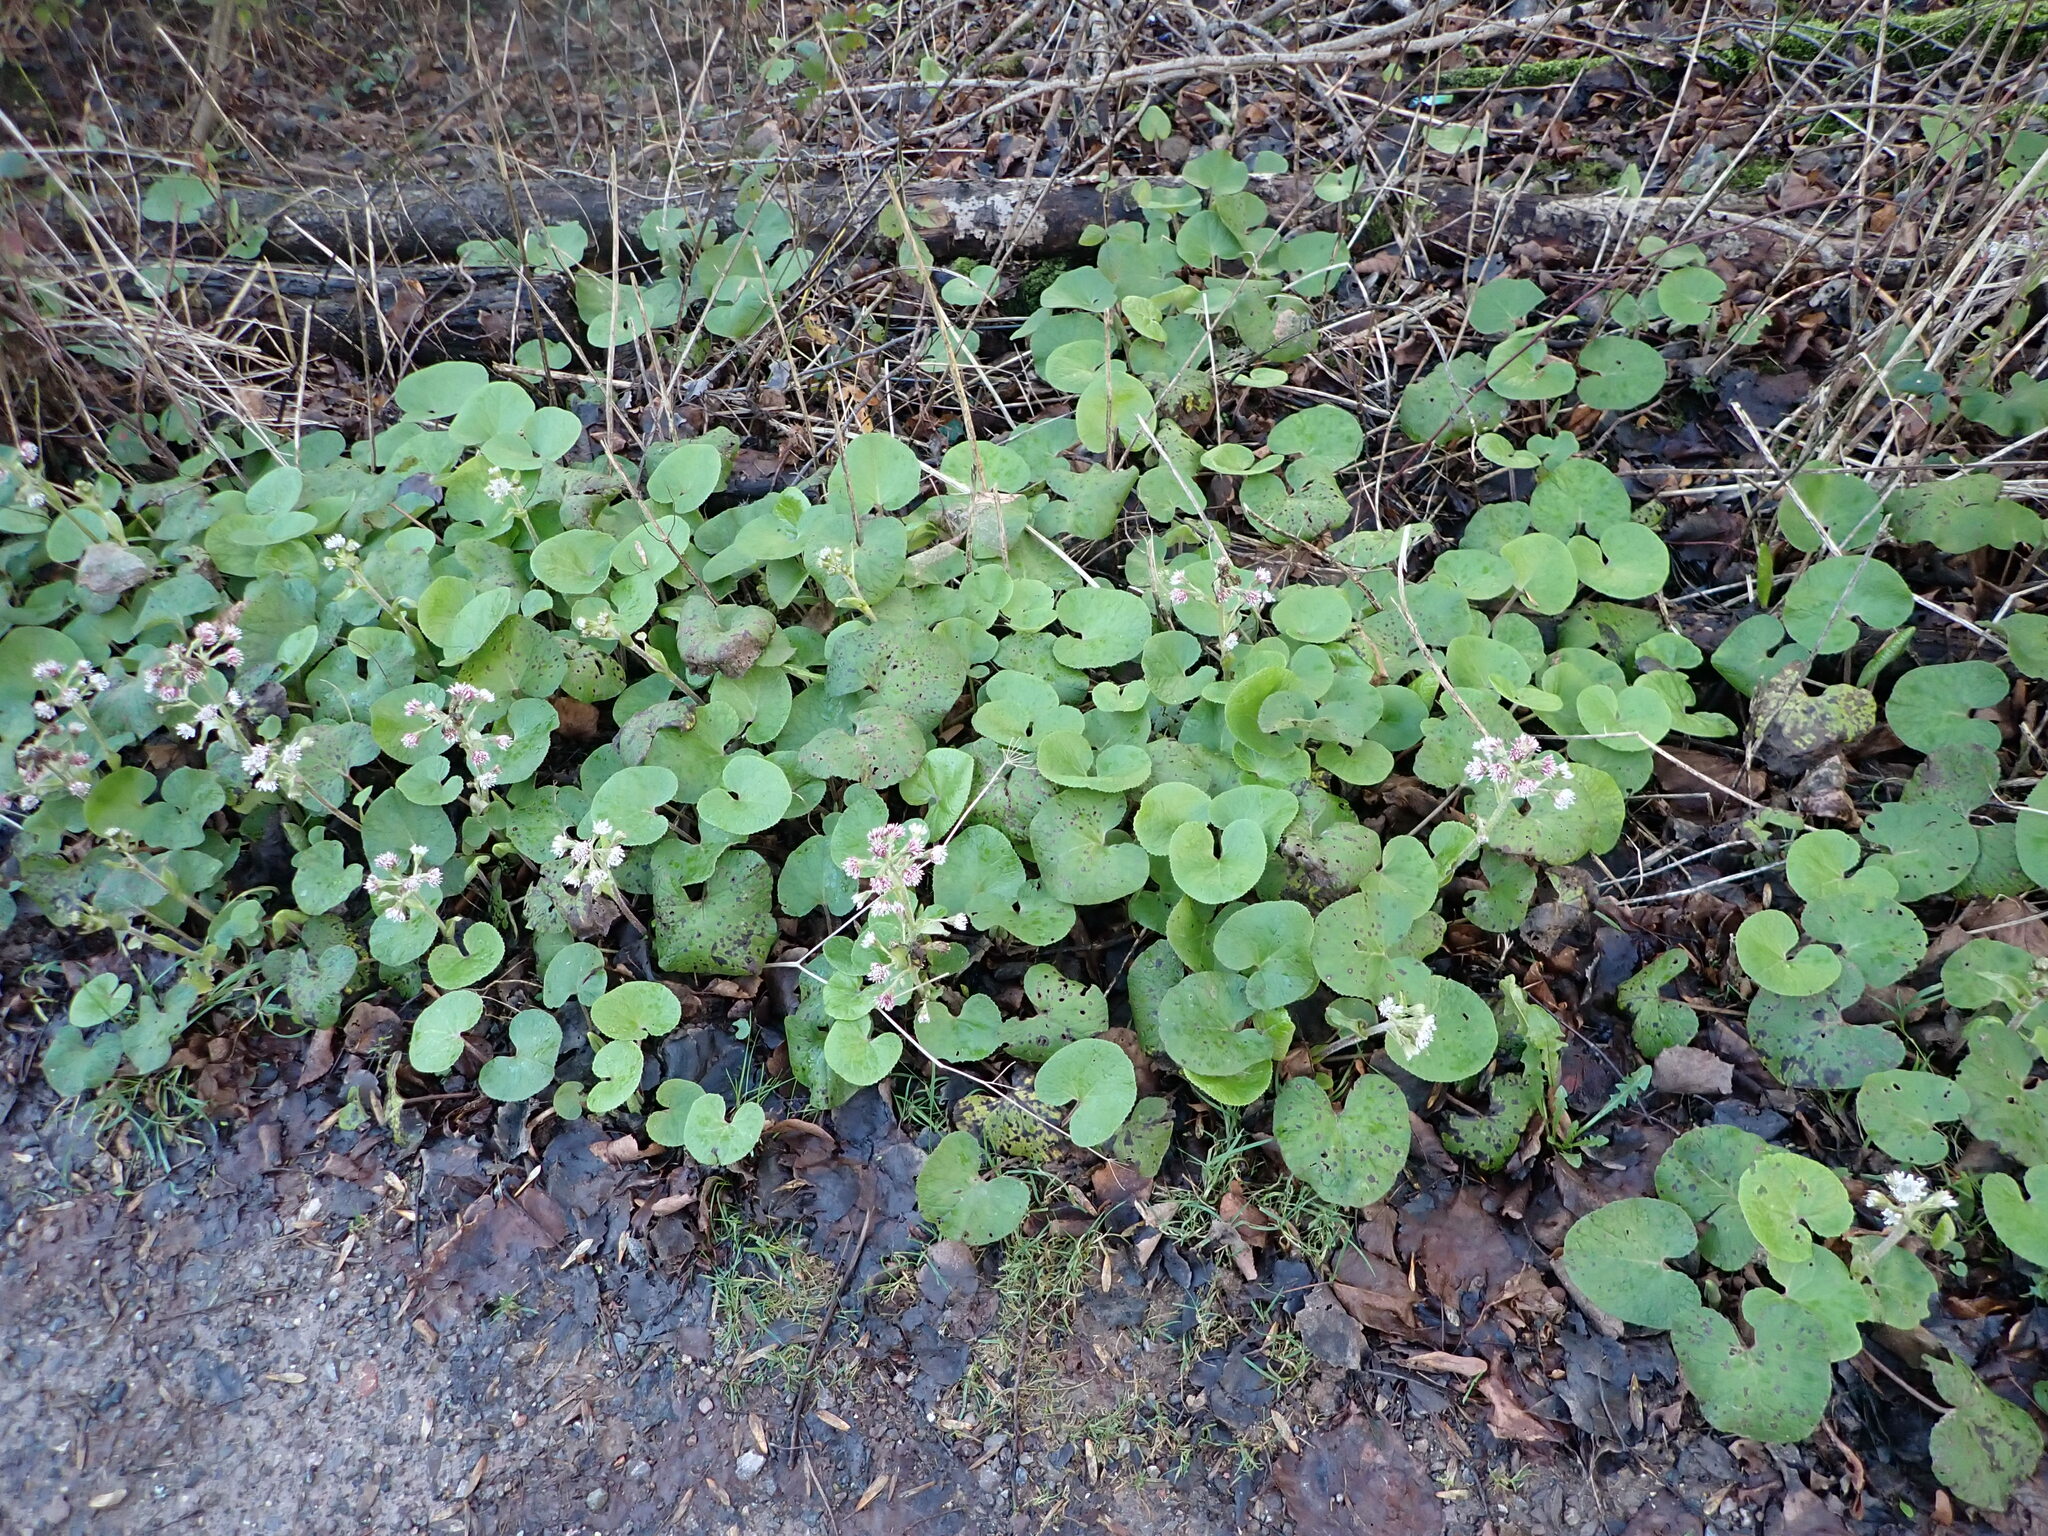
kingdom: Plantae
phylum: Tracheophyta
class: Magnoliopsida
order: Asterales
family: Asteraceae
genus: Petasites
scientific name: Petasites pyrenaicus
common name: Winter heliotrope
